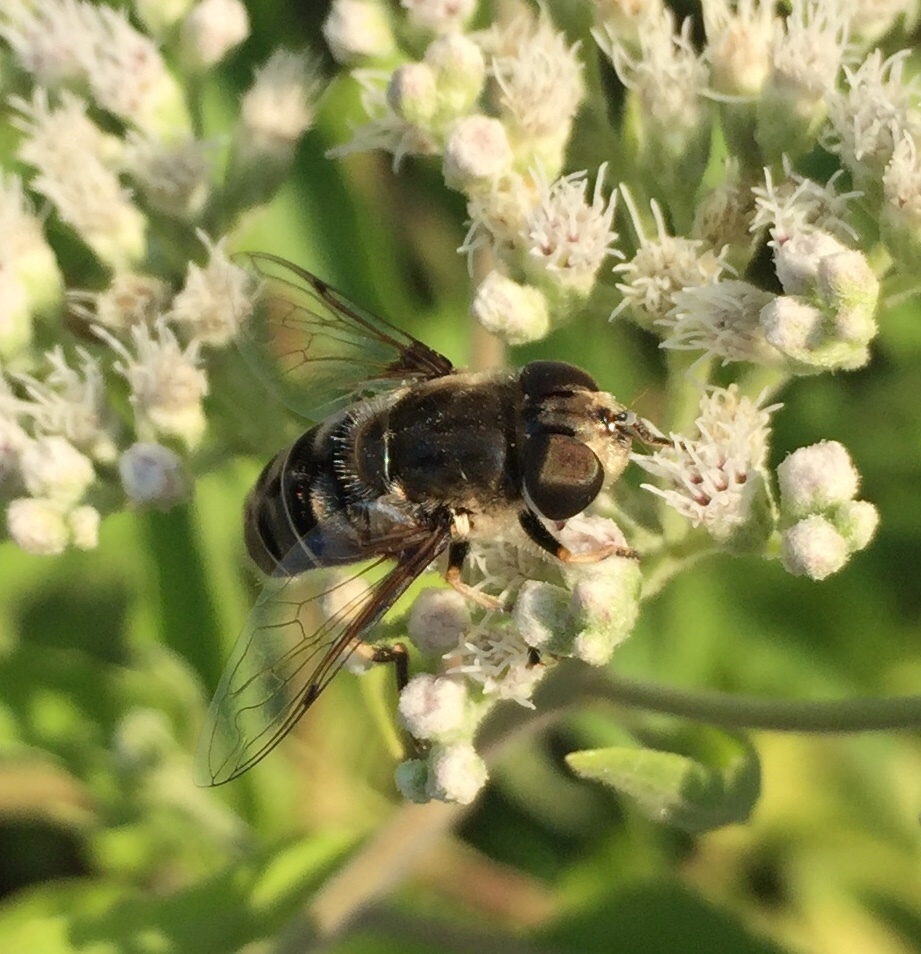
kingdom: Animalia
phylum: Arthropoda
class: Insecta
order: Diptera
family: Syrphidae
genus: Eristalis
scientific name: Eristalis dimidiata
